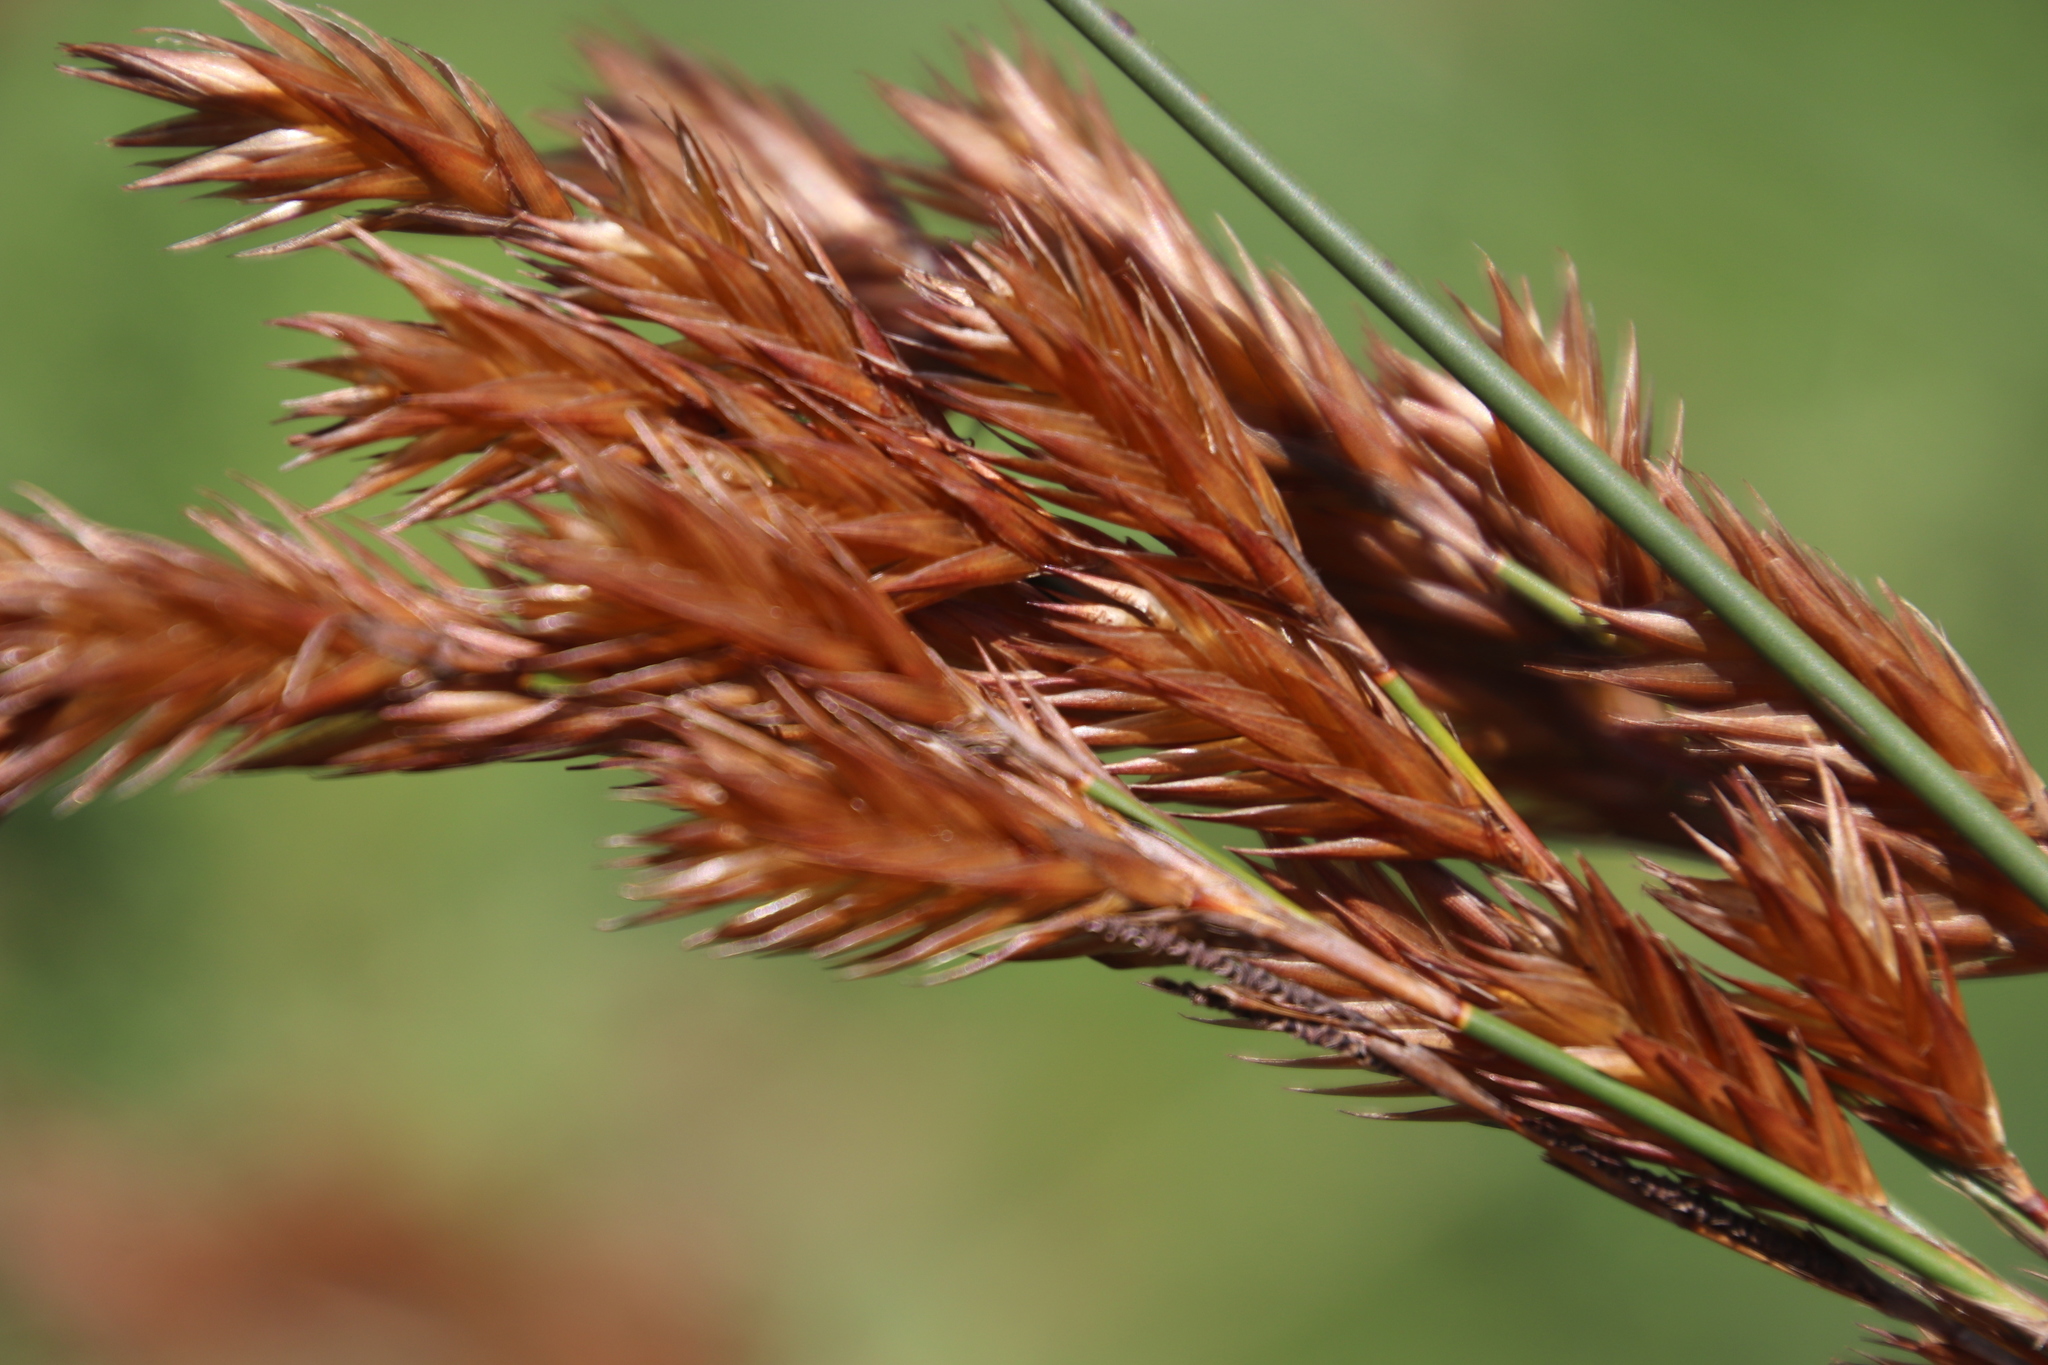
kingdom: Plantae
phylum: Tracheophyta
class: Liliopsida
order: Poales
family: Restionaceae
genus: Thamnochortus
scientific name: Thamnochortus insignis
